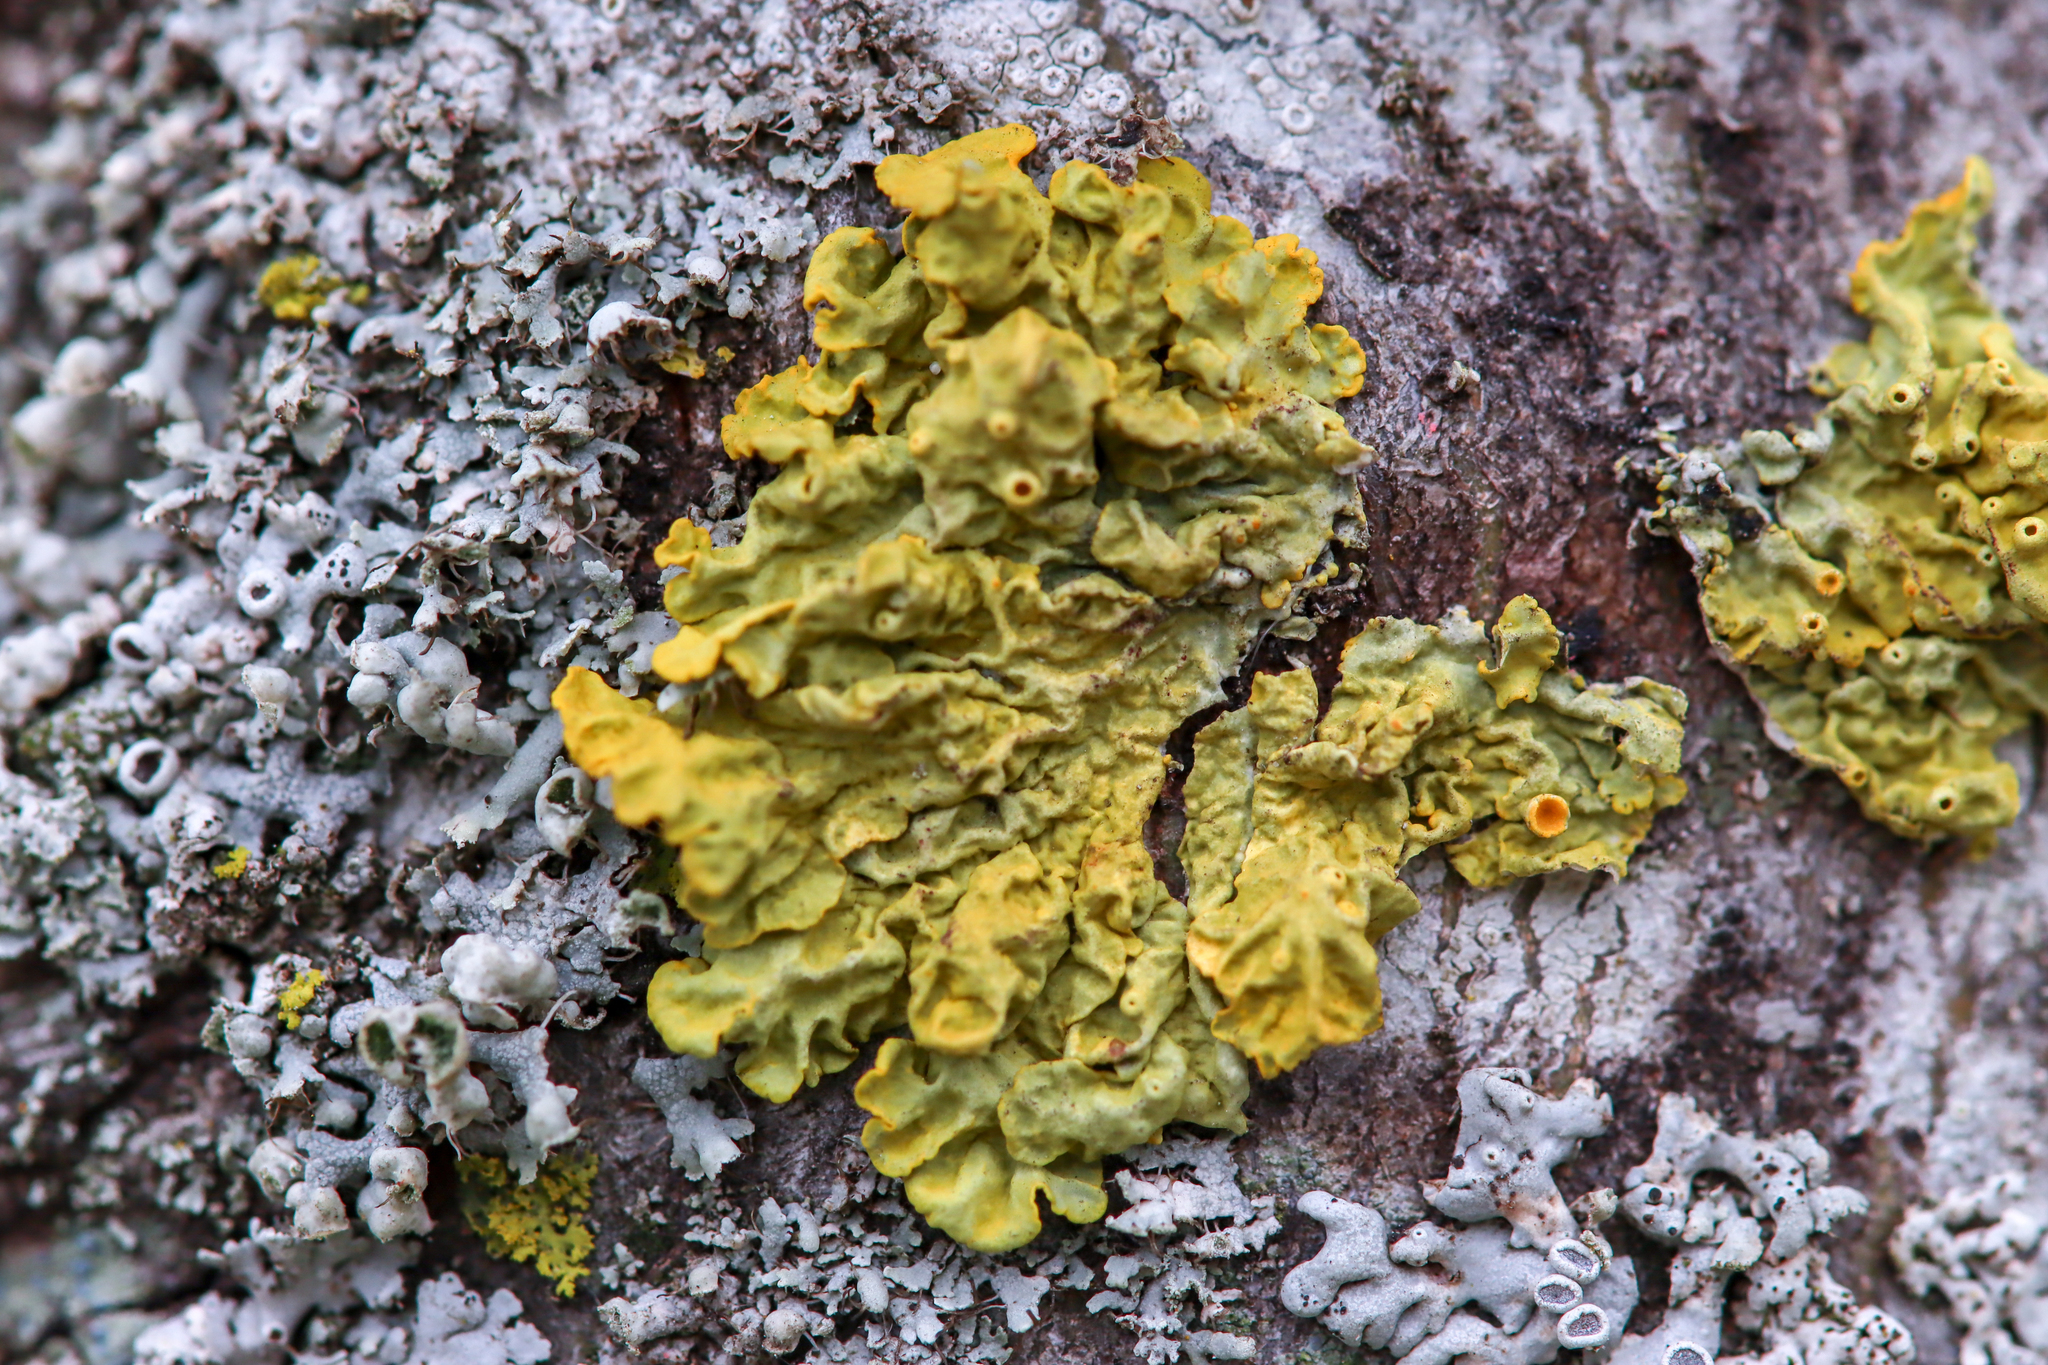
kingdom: Fungi
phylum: Ascomycota
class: Lecanoromycetes
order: Teloschistales
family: Teloschistaceae
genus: Xanthoria
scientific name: Xanthoria parietina
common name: Common orange lichen
